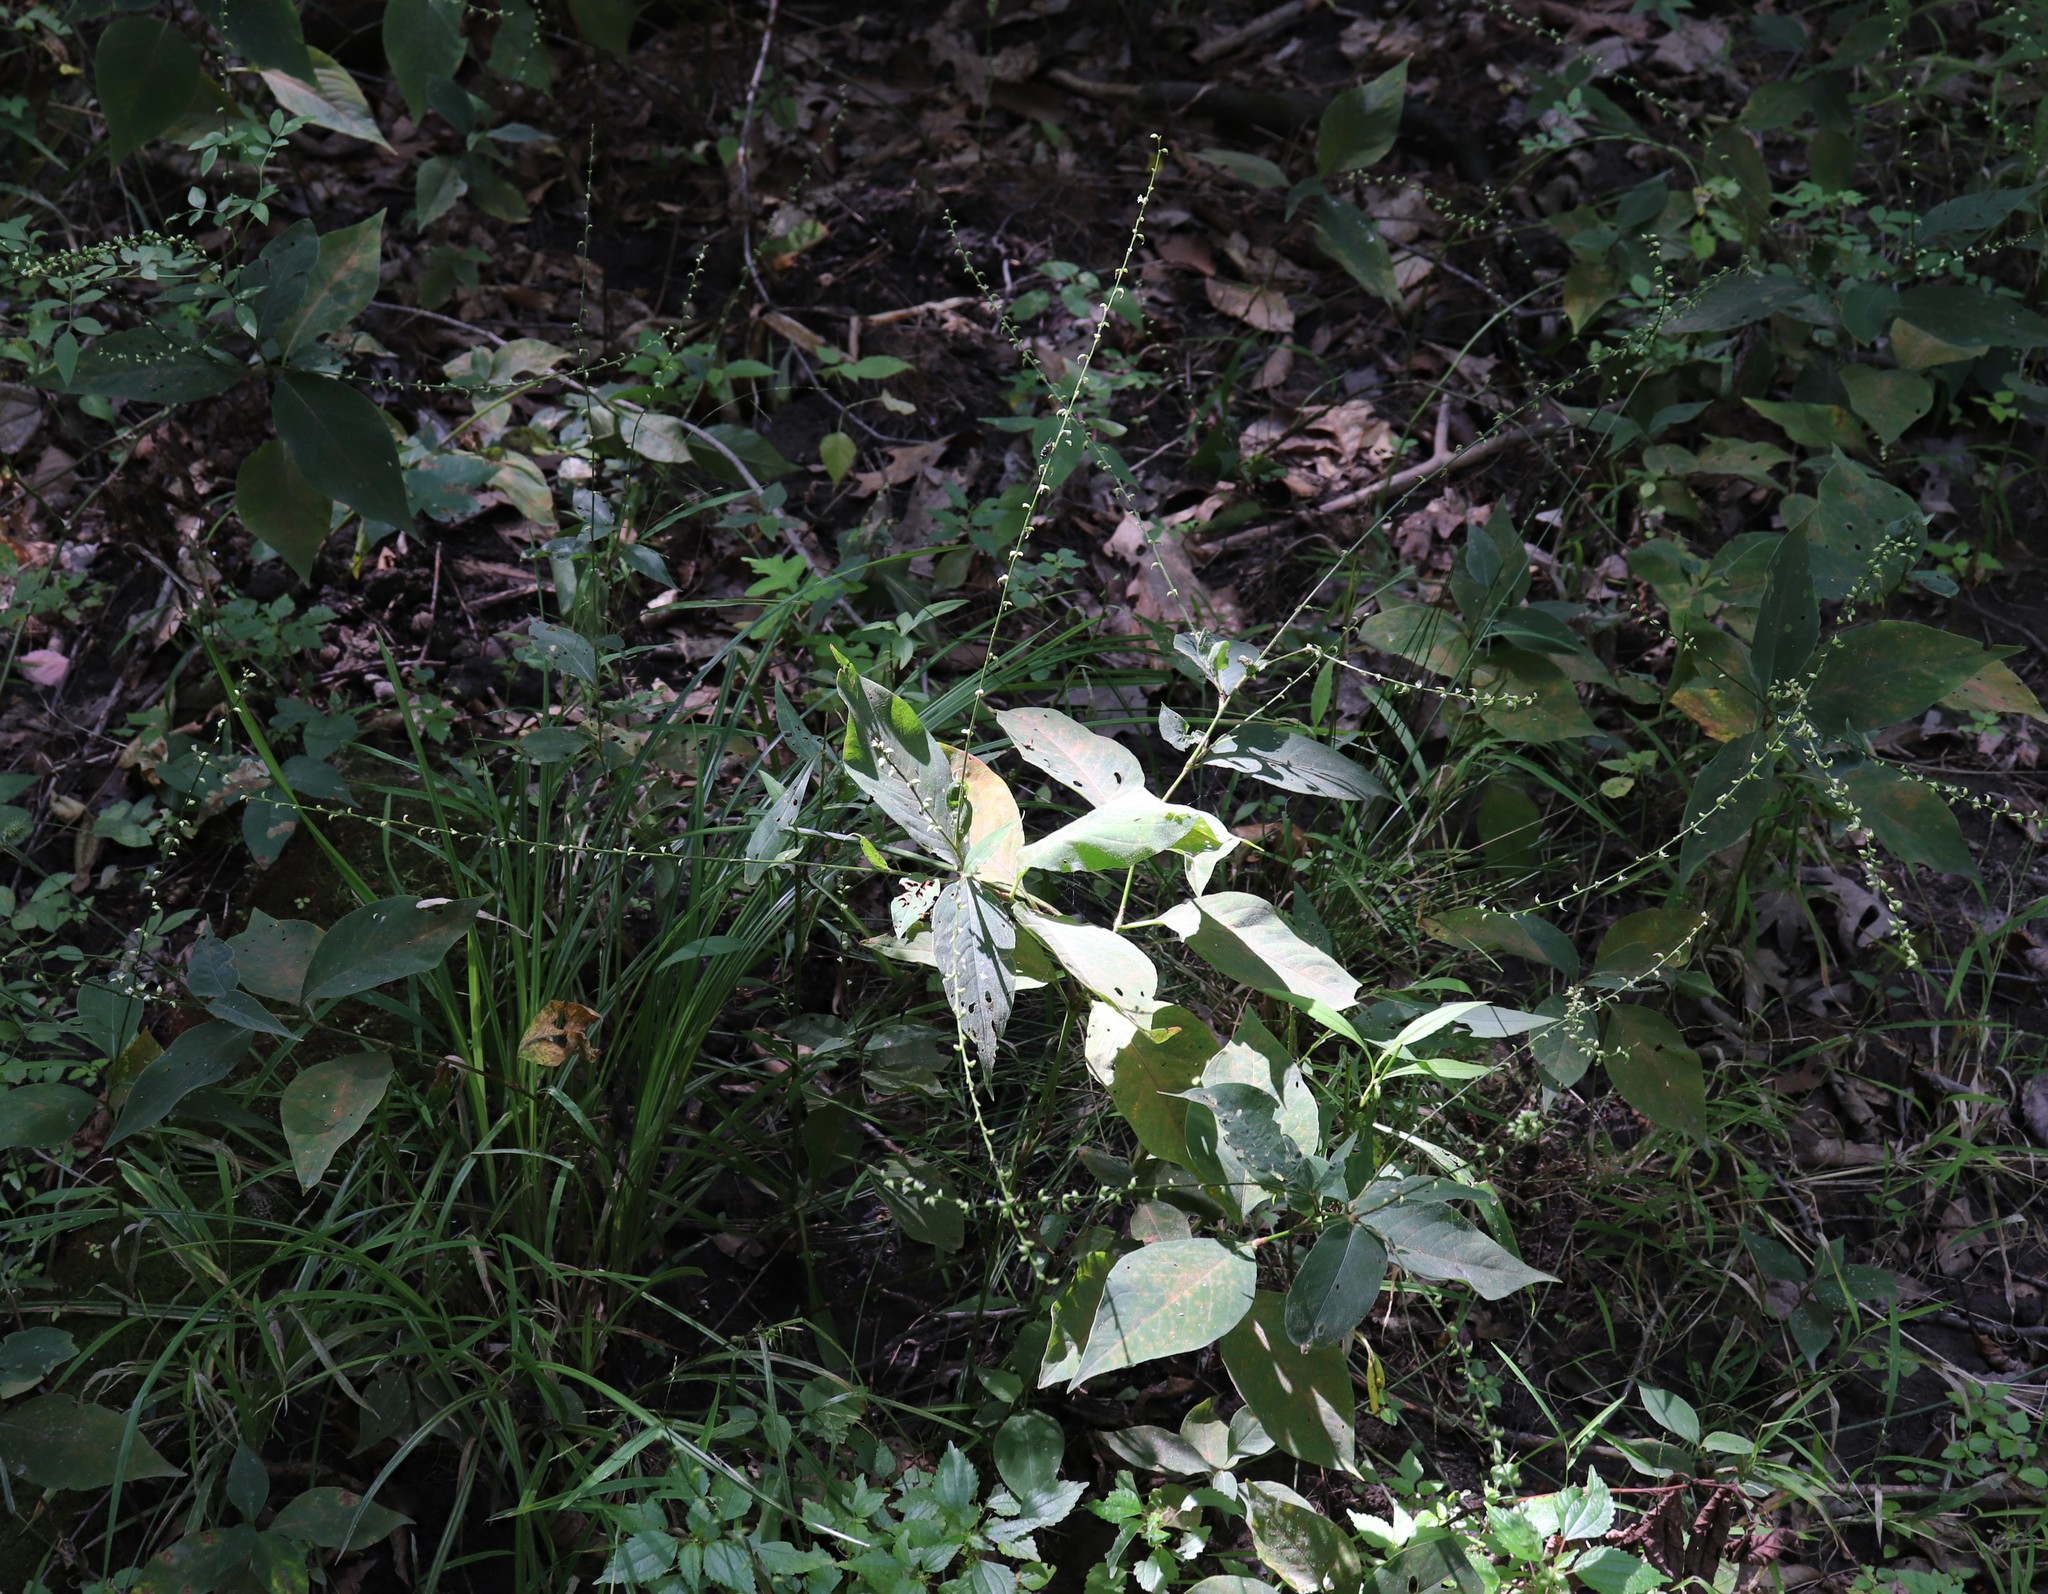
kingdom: Plantae
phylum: Tracheophyta
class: Magnoliopsida
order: Caryophyllales
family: Polygonaceae
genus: Persicaria
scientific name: Persicaria virginiana
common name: Jumpseed
